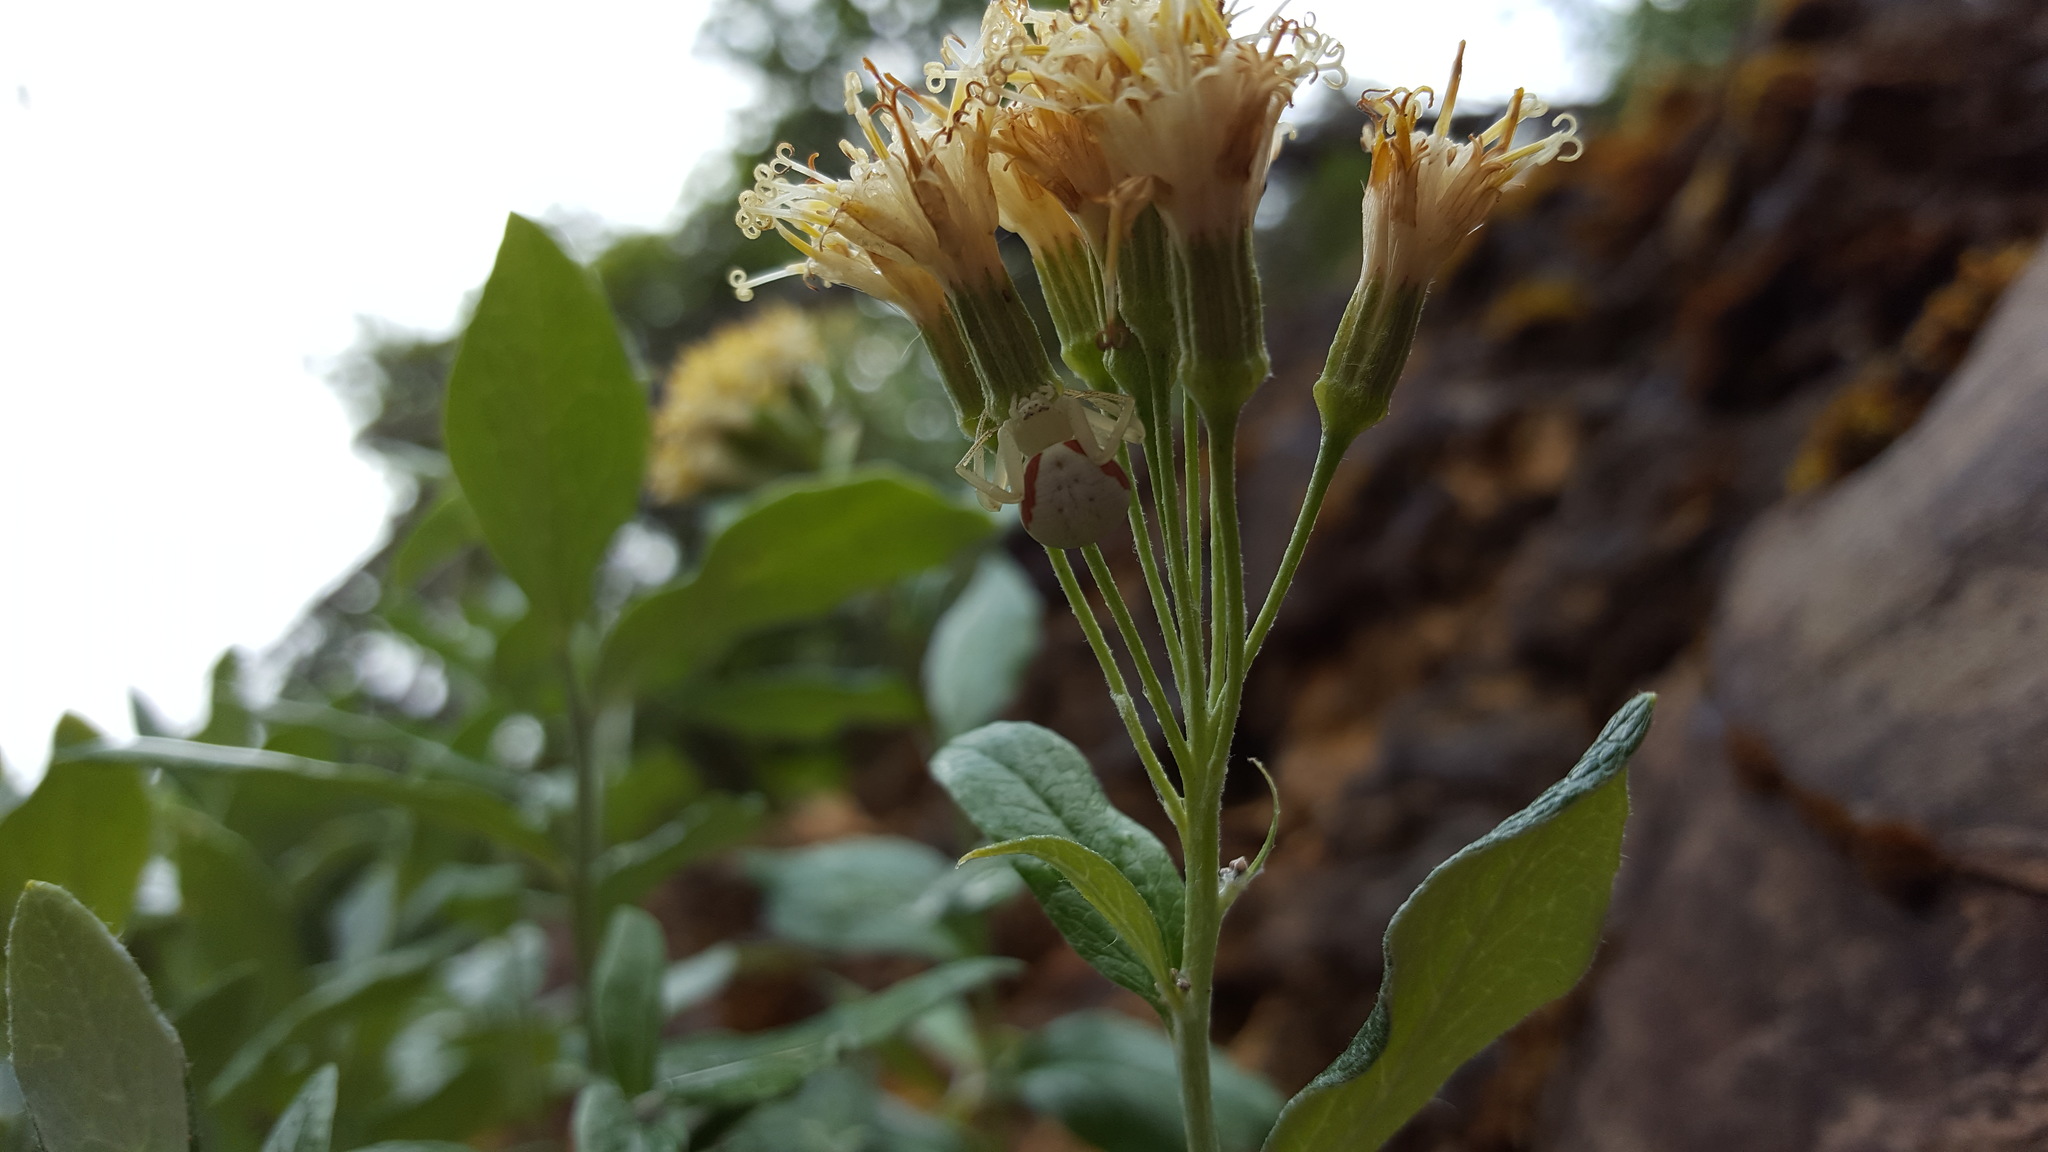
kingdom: Animalia
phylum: Arthropoda
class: Arachnida
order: Araneae
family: Thomisidae
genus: Misumena
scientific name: Misumena vatia
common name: Goldenrod crab spider
